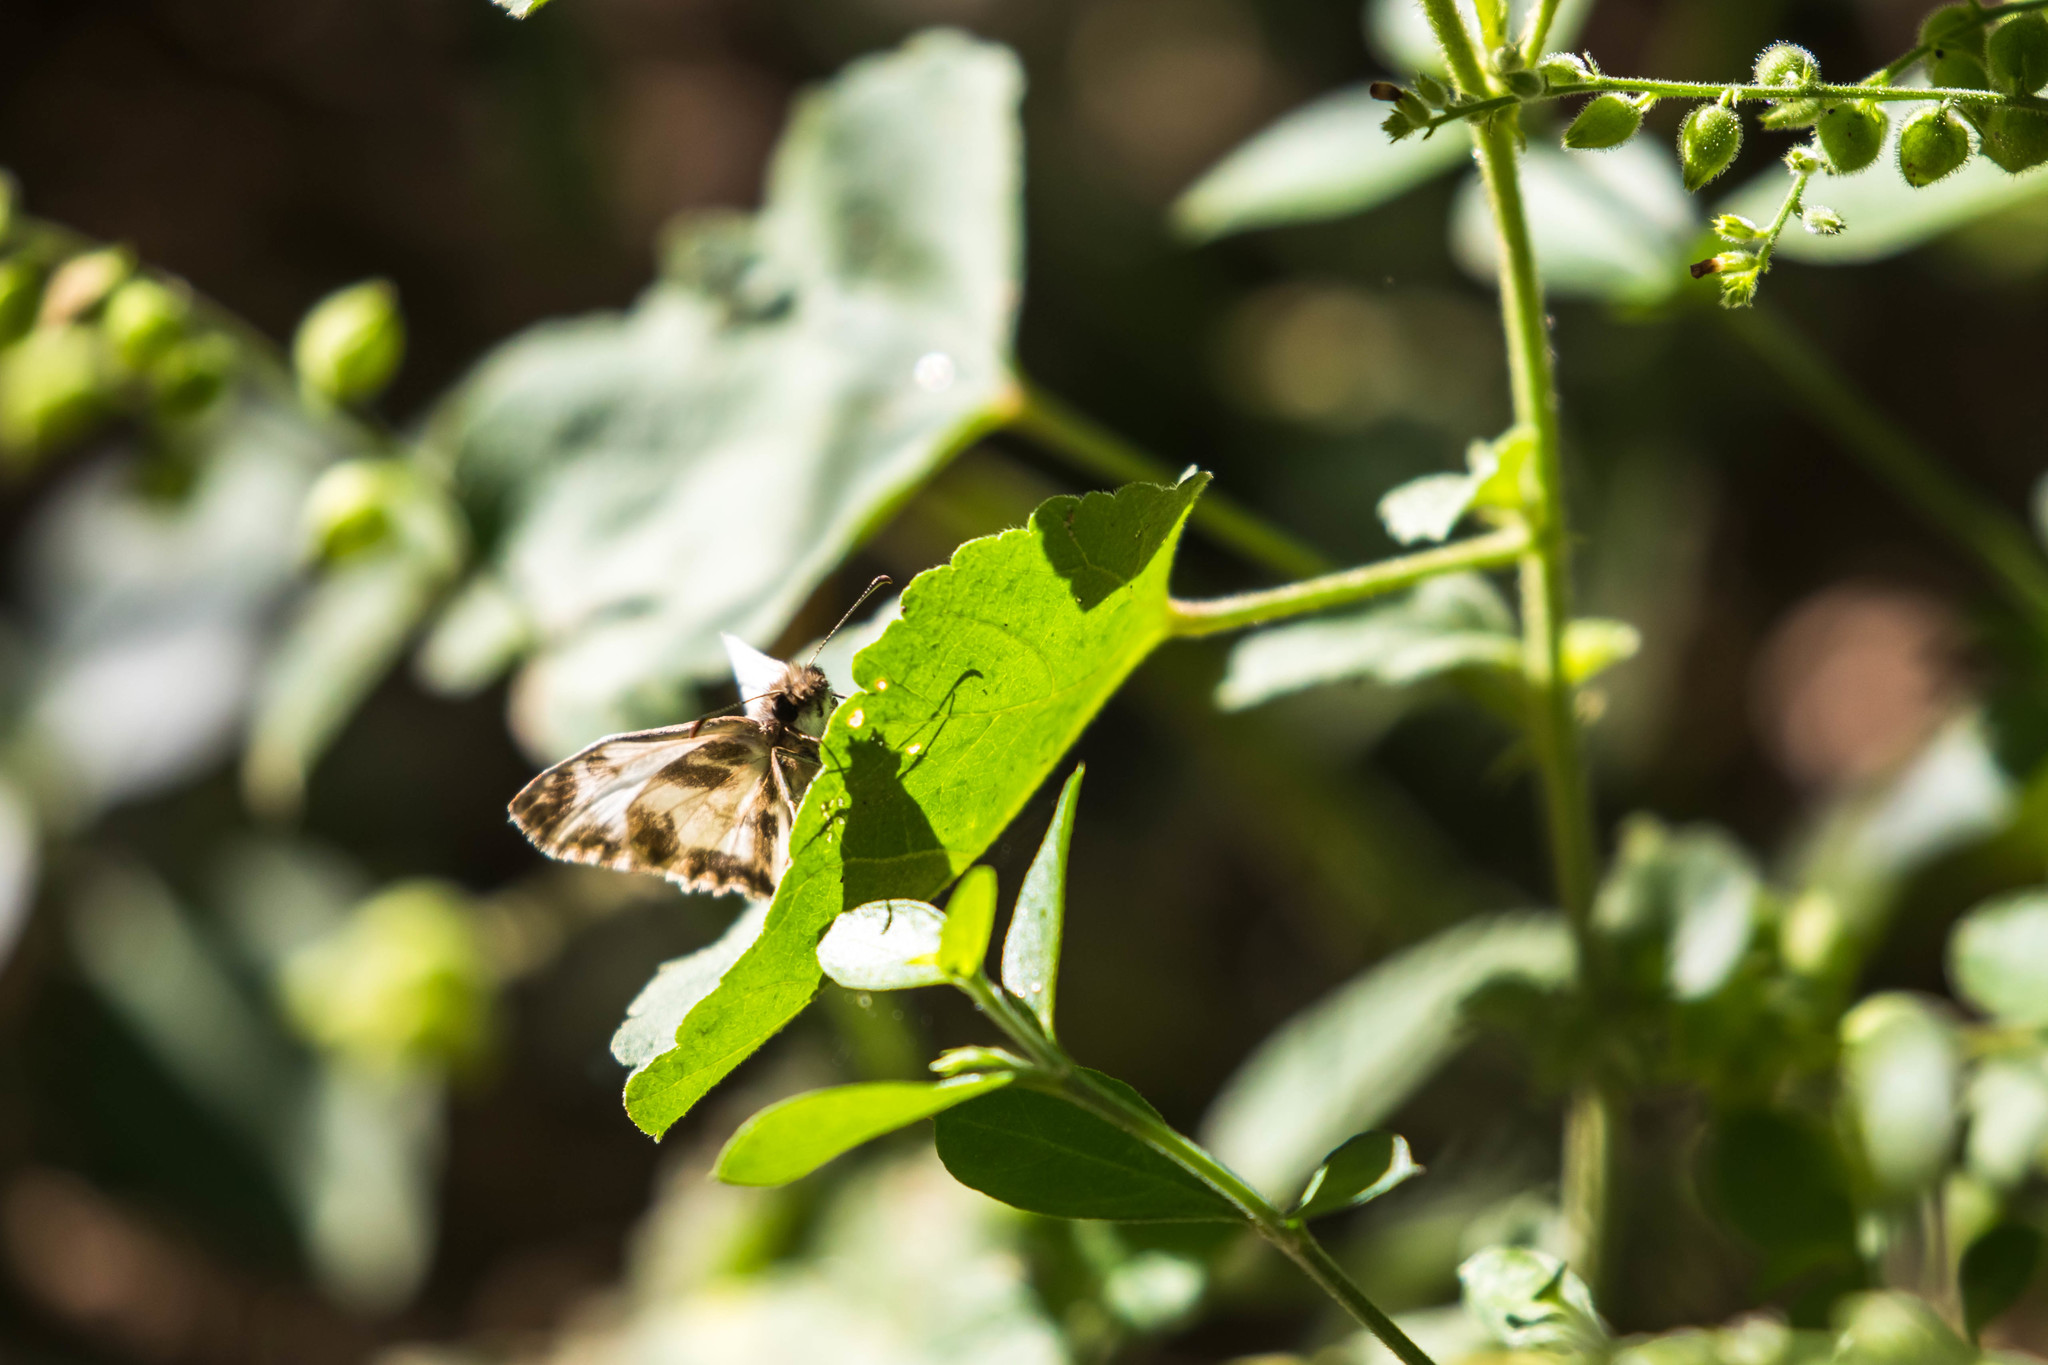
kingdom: Animalia
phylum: Arthropoda
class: Insecta
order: Lepidoptera
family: Hesperiidae
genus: Heliopetes
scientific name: Heliopetes macaira
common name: Turk's-cap white-skipper
